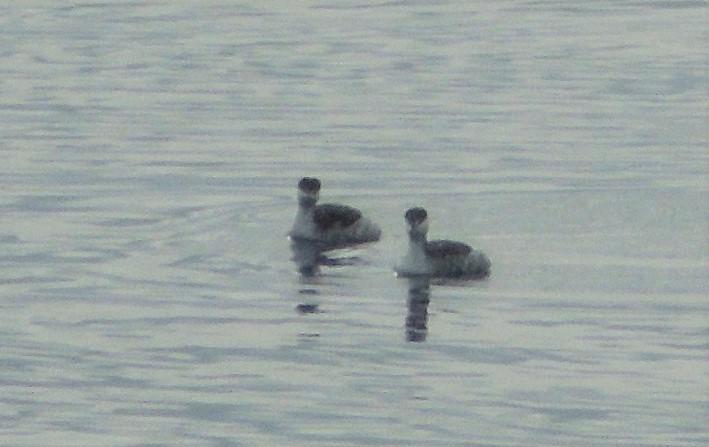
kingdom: Animalia
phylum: Chordata
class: Aves
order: Podicipediformes
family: Podicipedidae
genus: Podiceps
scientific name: Podiceps auritus
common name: Horned grebe
